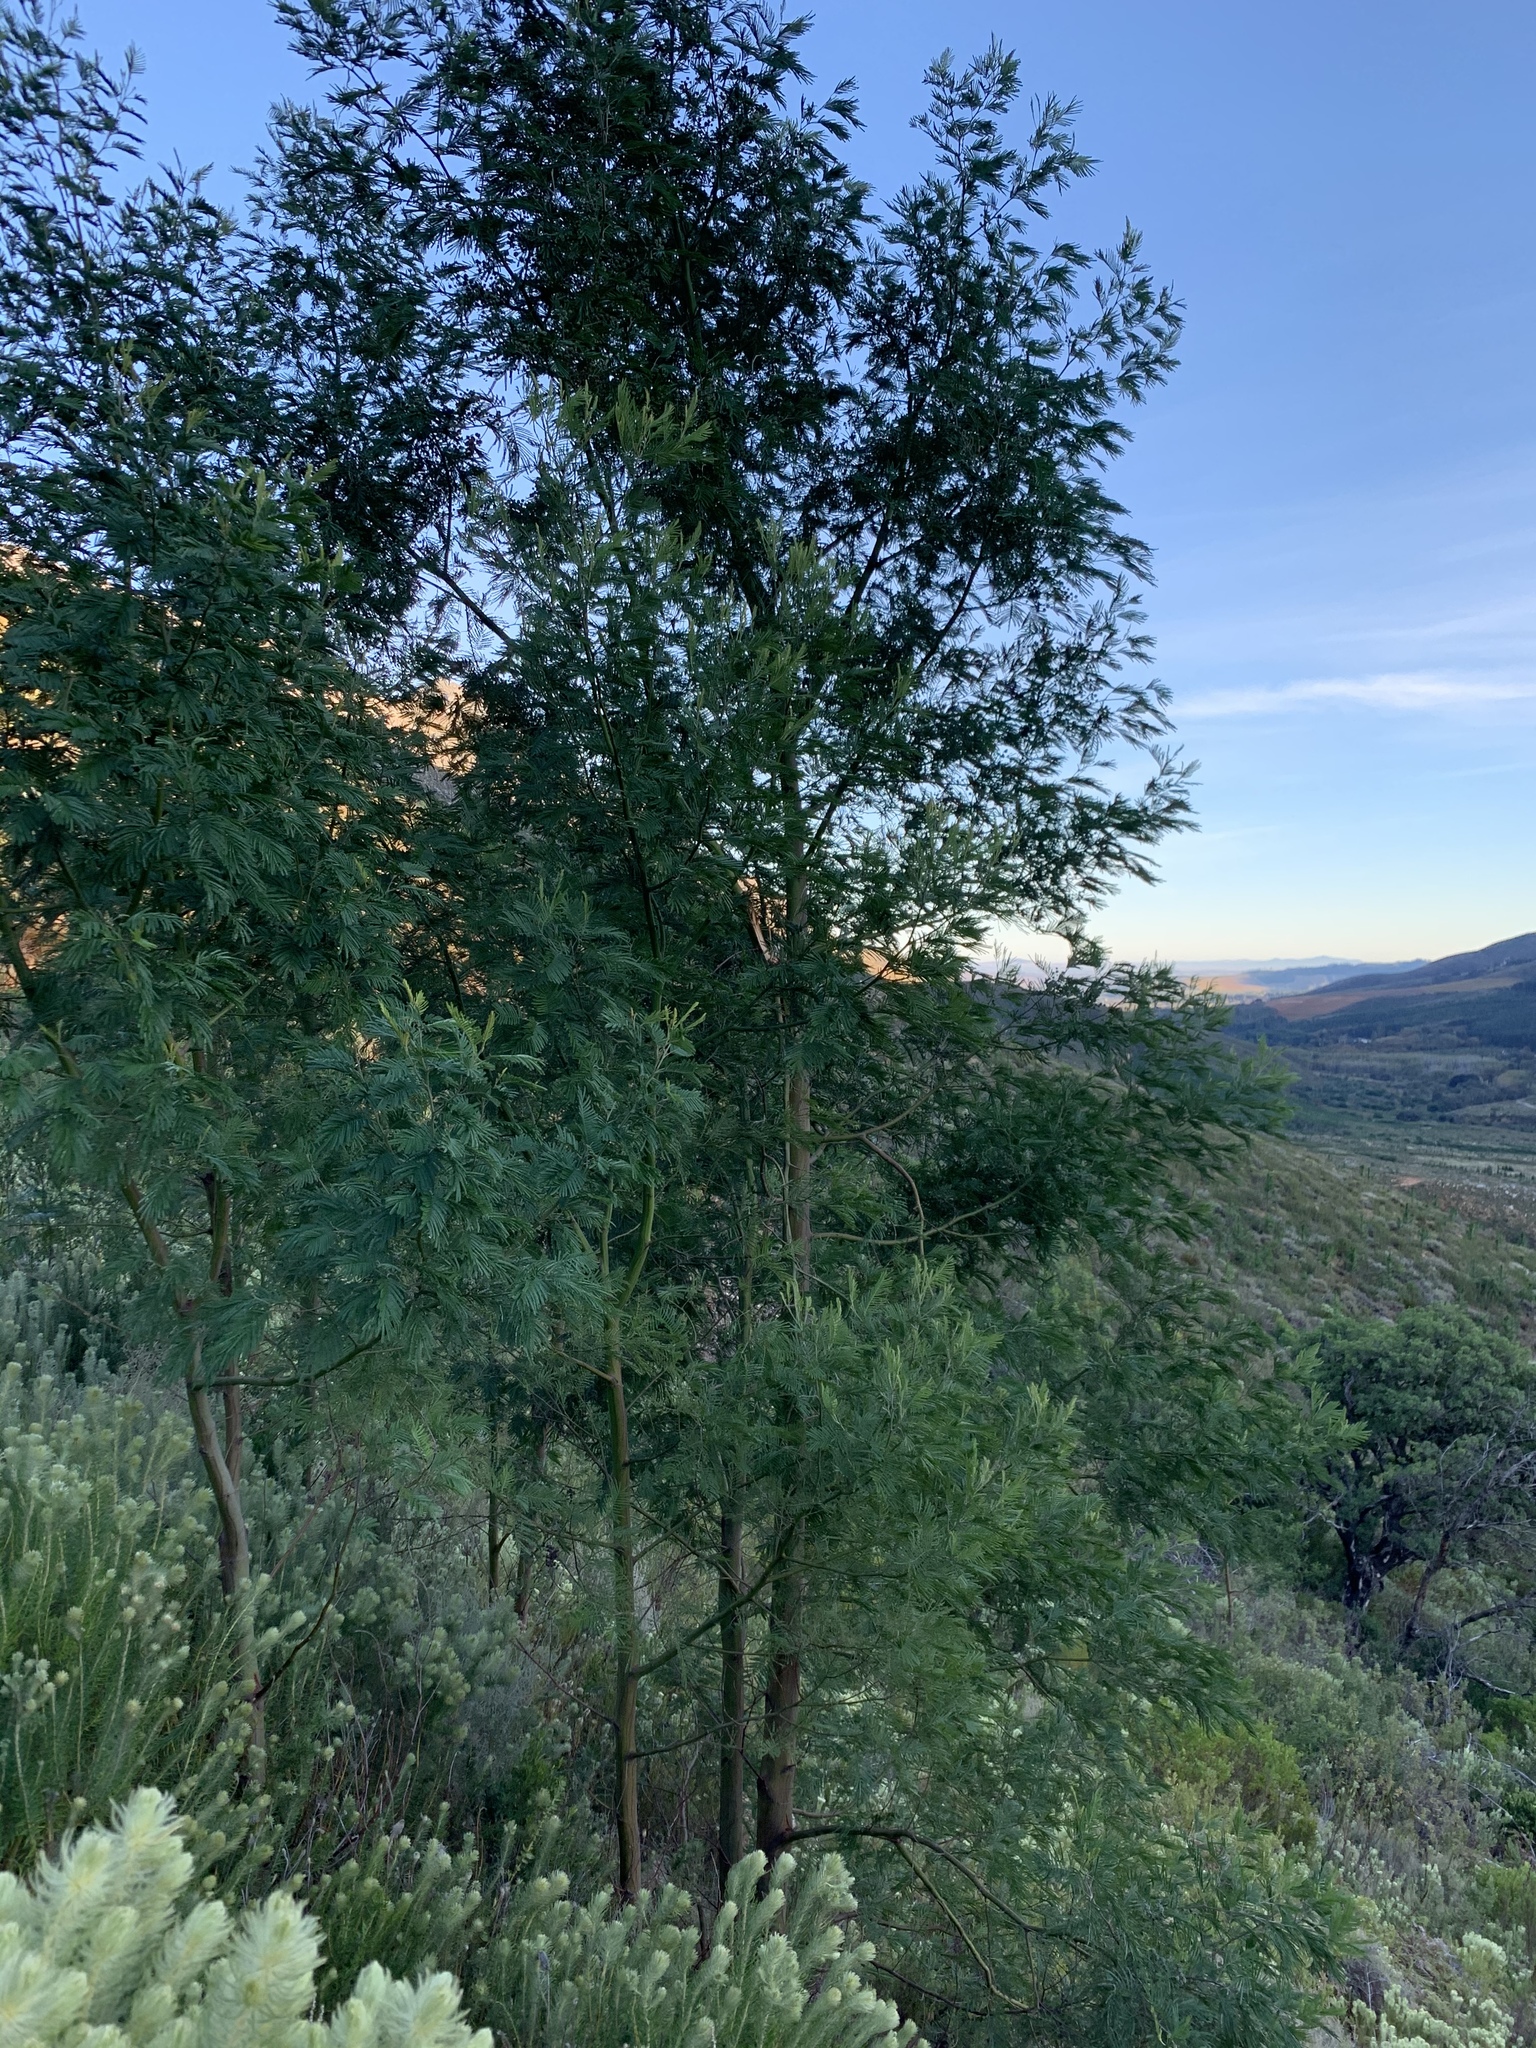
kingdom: Plantae
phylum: Tracheophyta
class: Magnoliopsida
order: Fabales
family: Fabaceae
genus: Acacia
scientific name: Acacia mearnsii
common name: Black wattle
